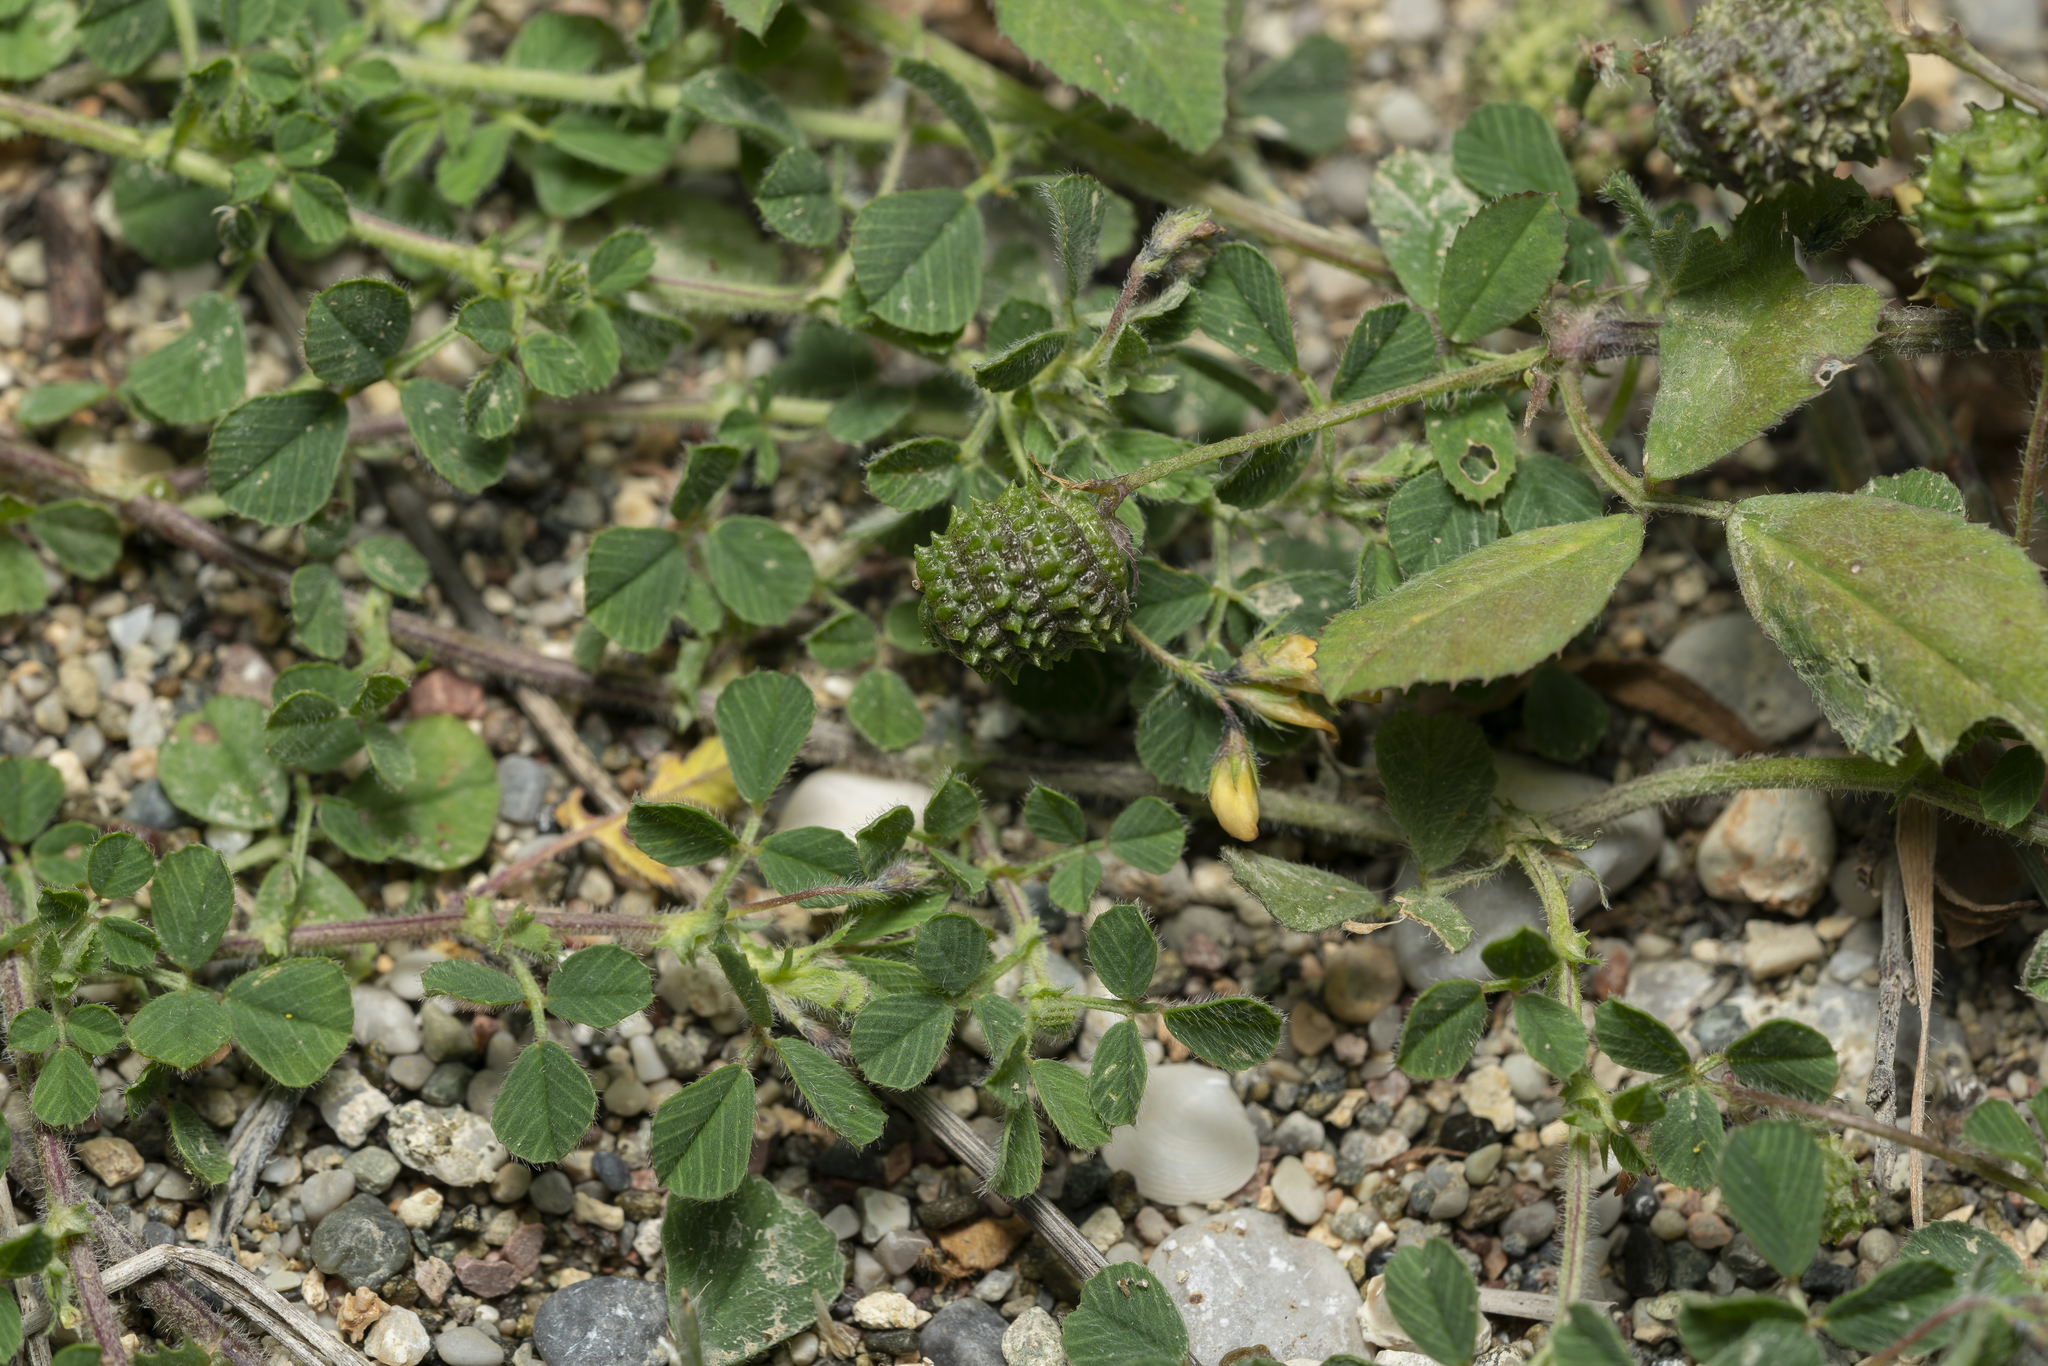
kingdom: Plantae
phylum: Tracheophyta
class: Magnoliopsida
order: Fabales
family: Fabaceae
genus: Medicago
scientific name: Medicago turbinata
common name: Southern medick
